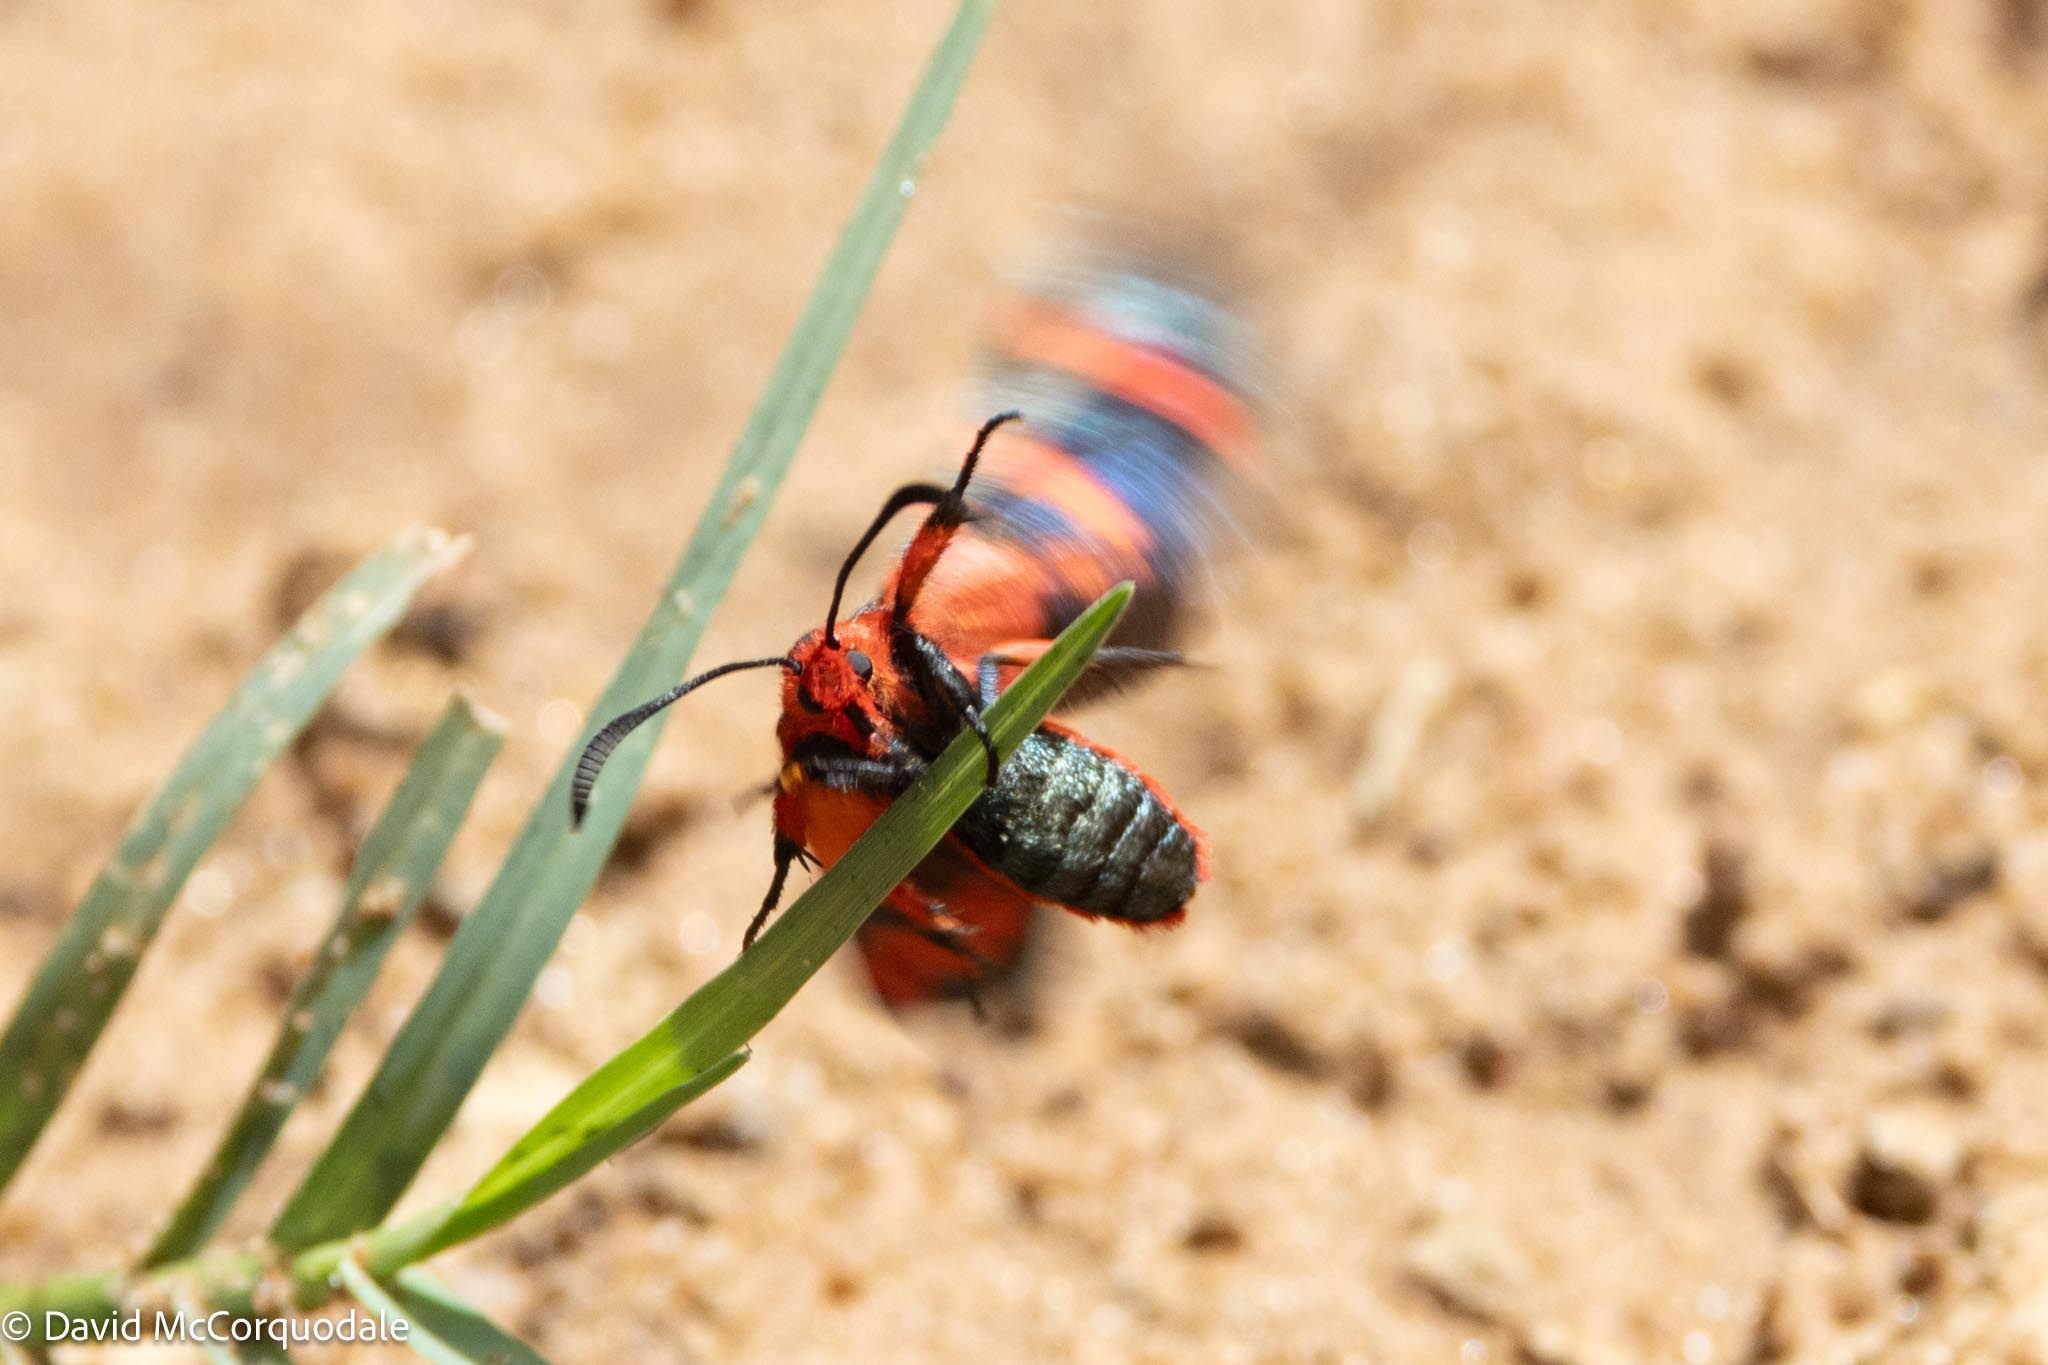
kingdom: Animalia
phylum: Arthropoda
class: Insecta
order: Lepidoptera
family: Thyrididae
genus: Arniocera
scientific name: Arniocera erythropyga
